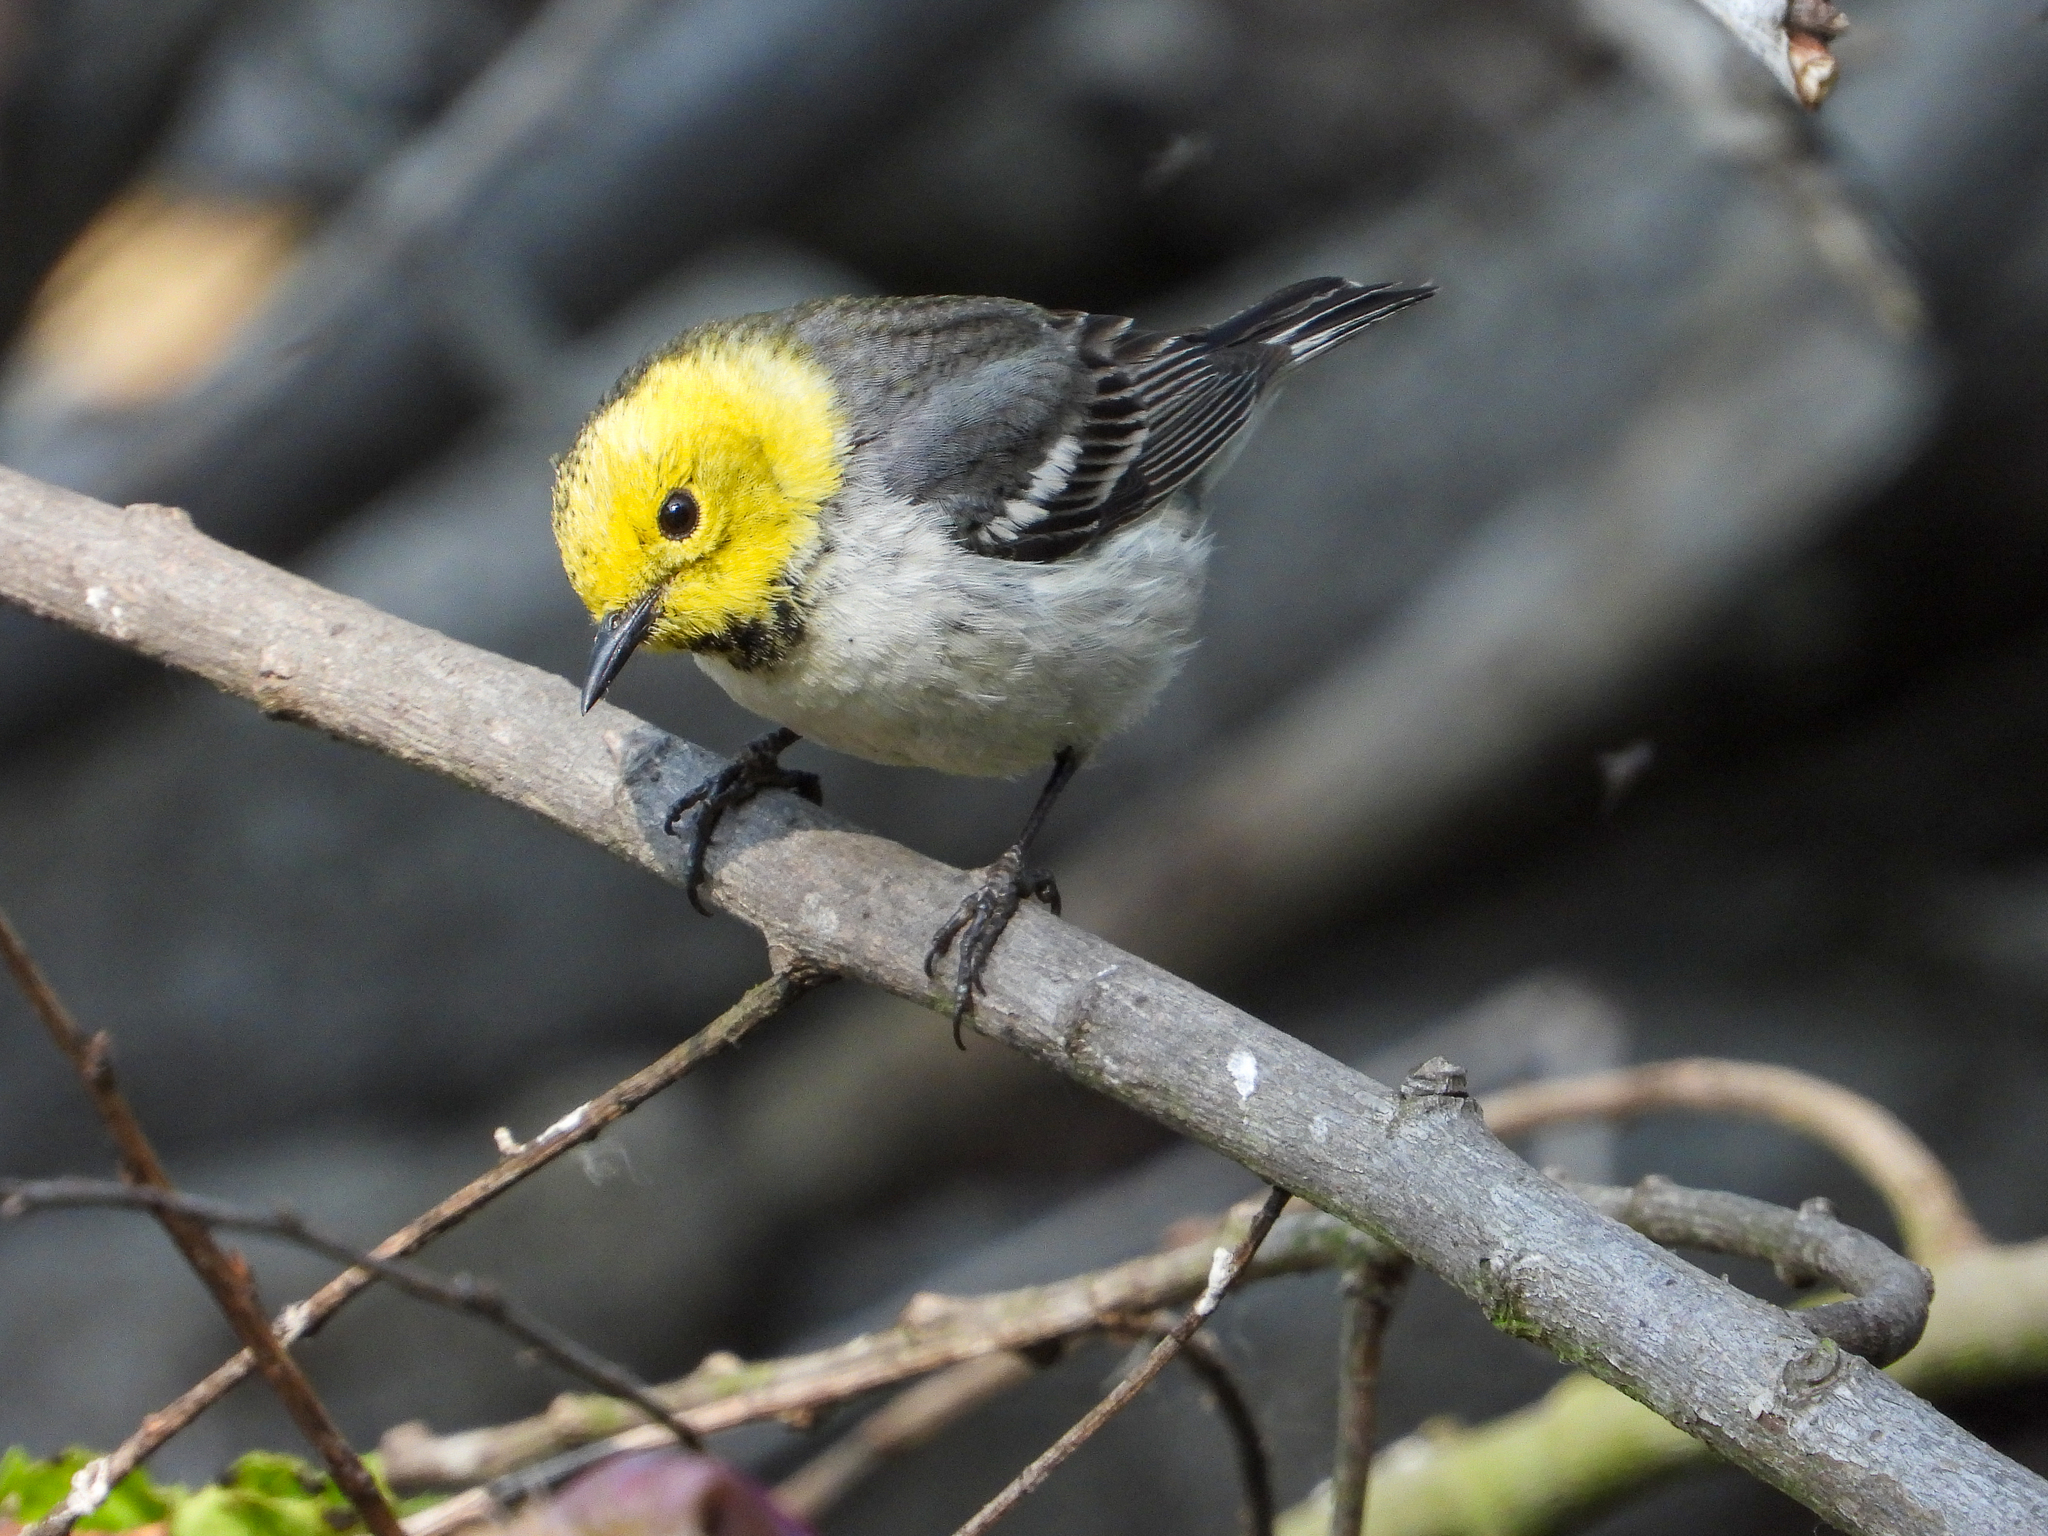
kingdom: Animalia
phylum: Chordata
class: Aves
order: Passeriformes
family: Parulidae
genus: Setophaga
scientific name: Setophaga occidentalis
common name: Hermit warbler
